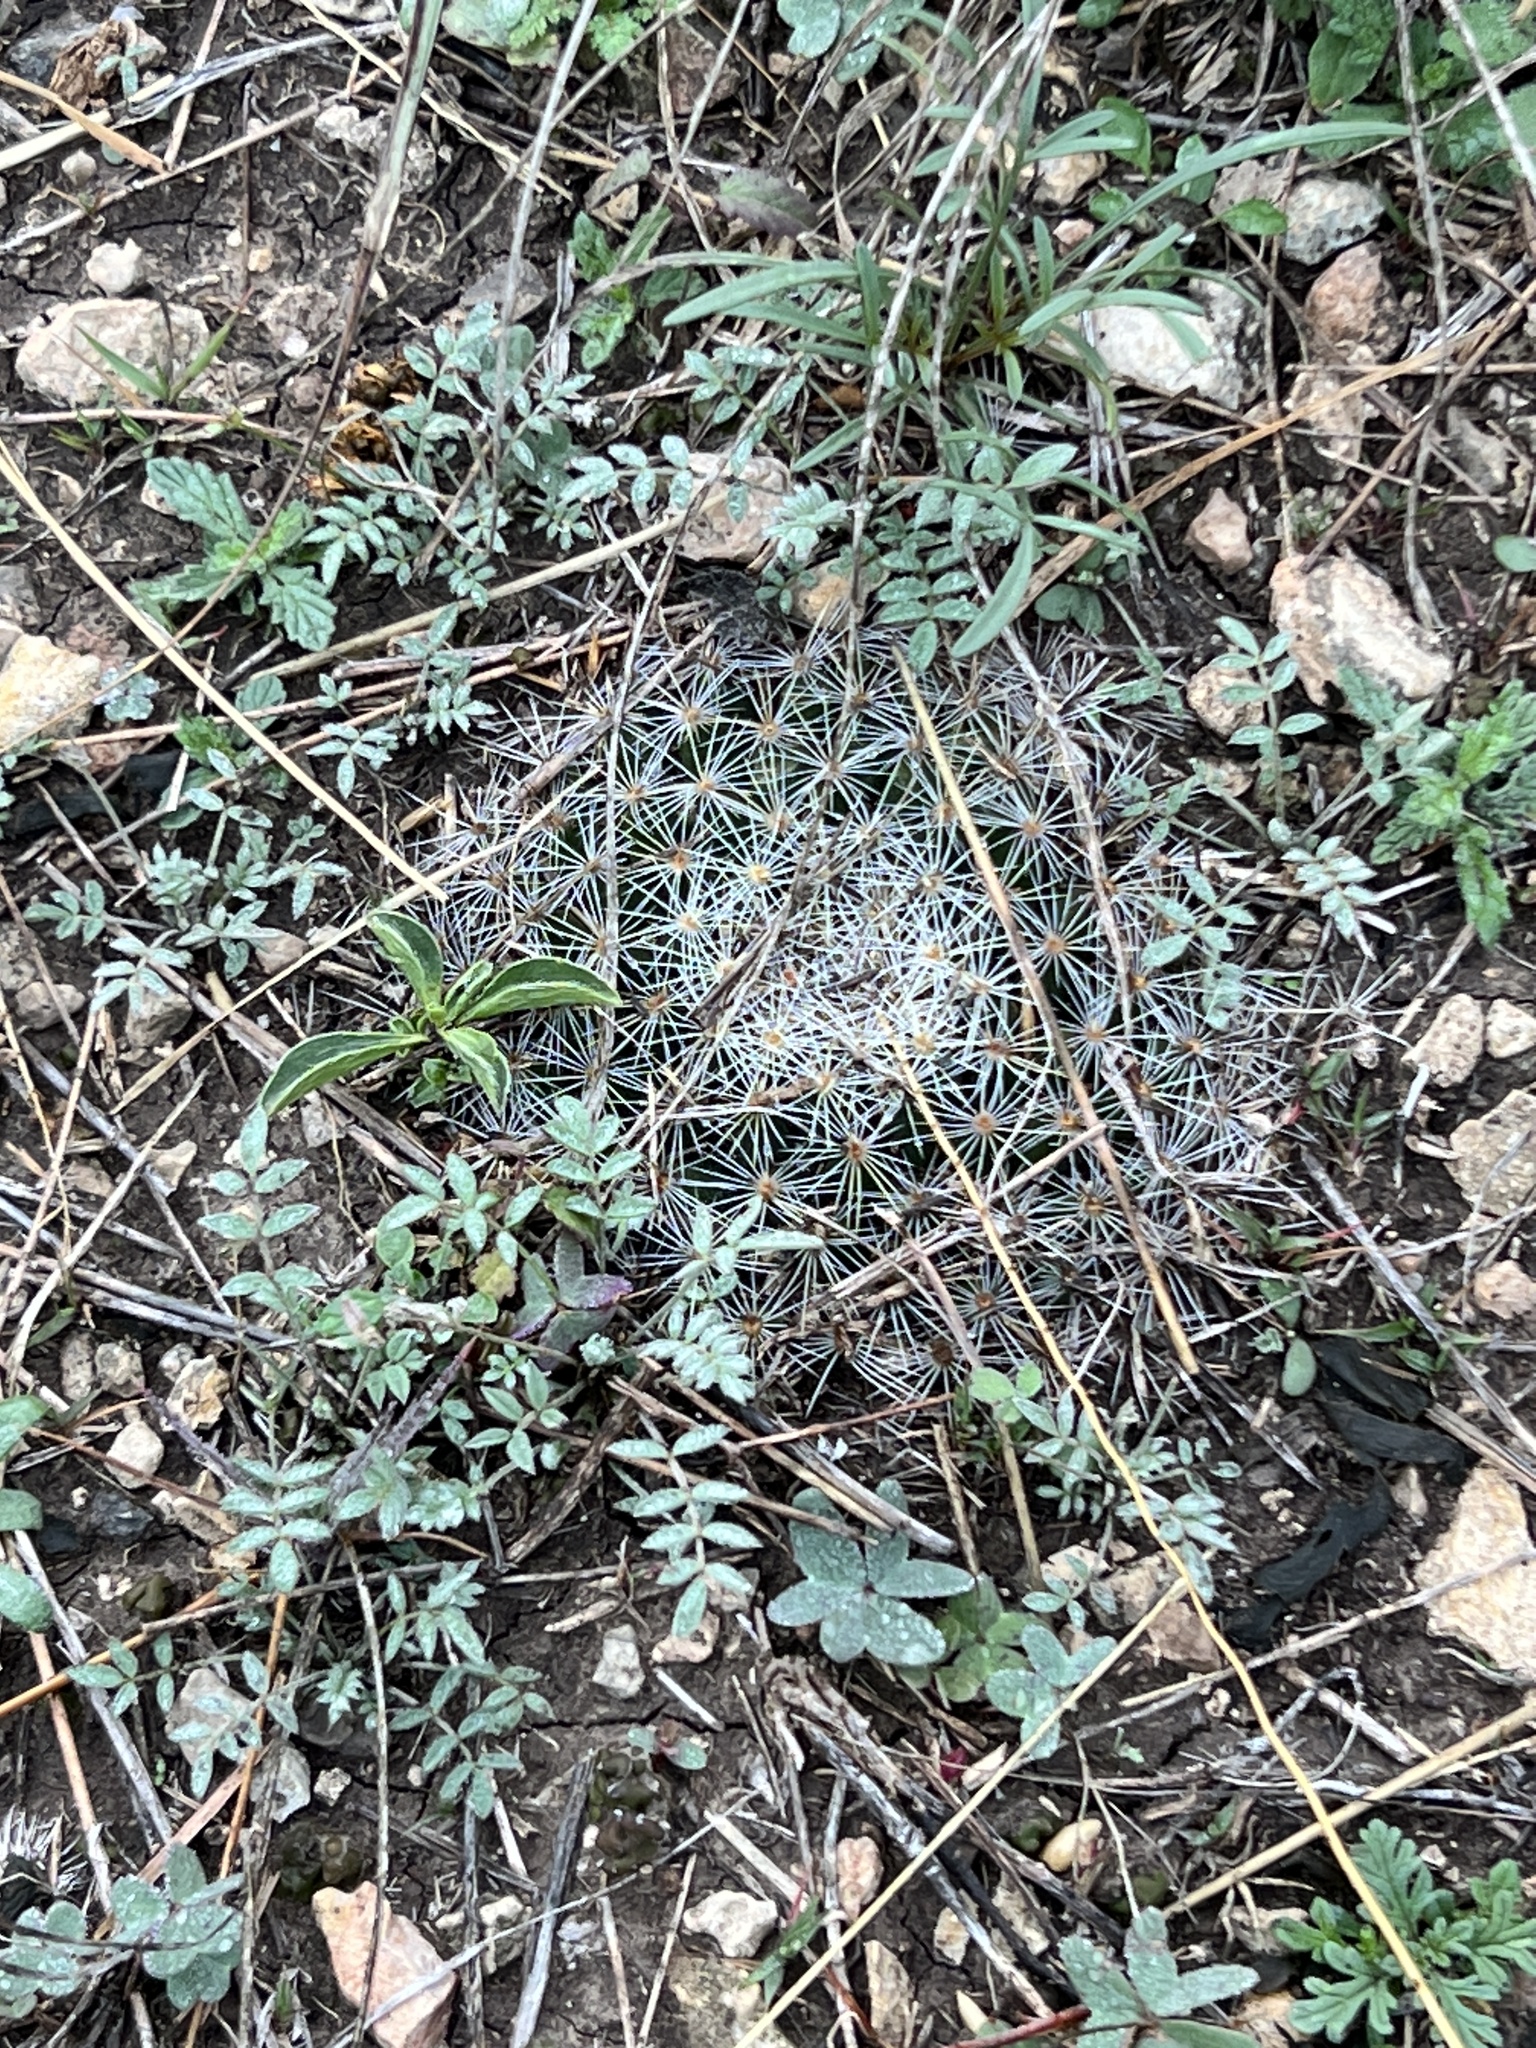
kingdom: Plantae
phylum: Tracheophyta
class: Magnoliopsida
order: Caryophyllales
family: Cactaceae
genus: Mammillaria
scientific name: Mammillaria heyderi
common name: Little nipple cactus
